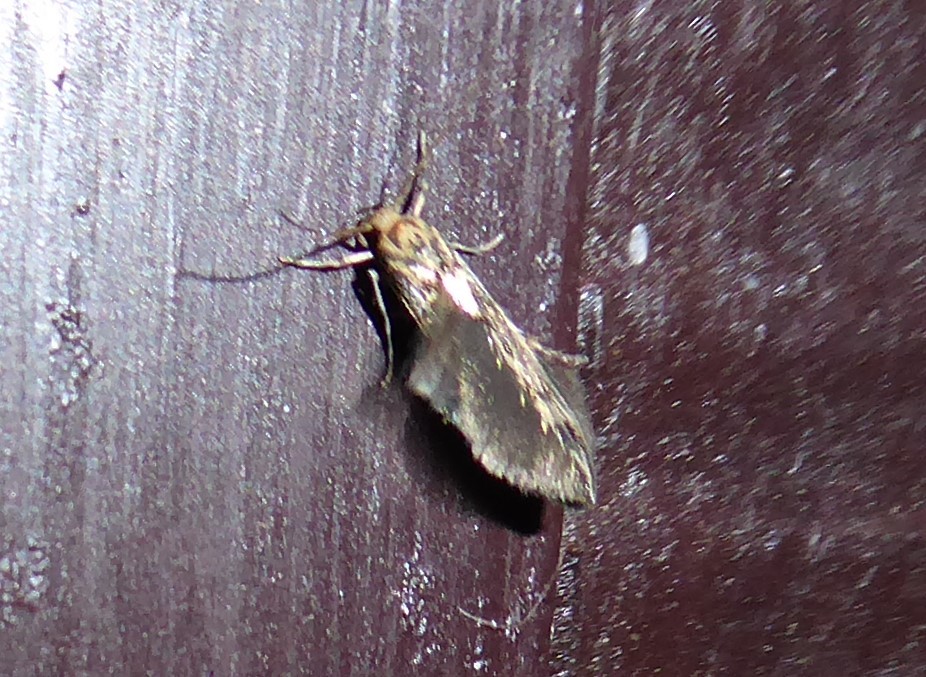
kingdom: Animalia
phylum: Arthropoda
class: Insecta
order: Lepidoptera
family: Stathmopodidae
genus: Stathmopoda
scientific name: Stathmopoda plumbiflua
